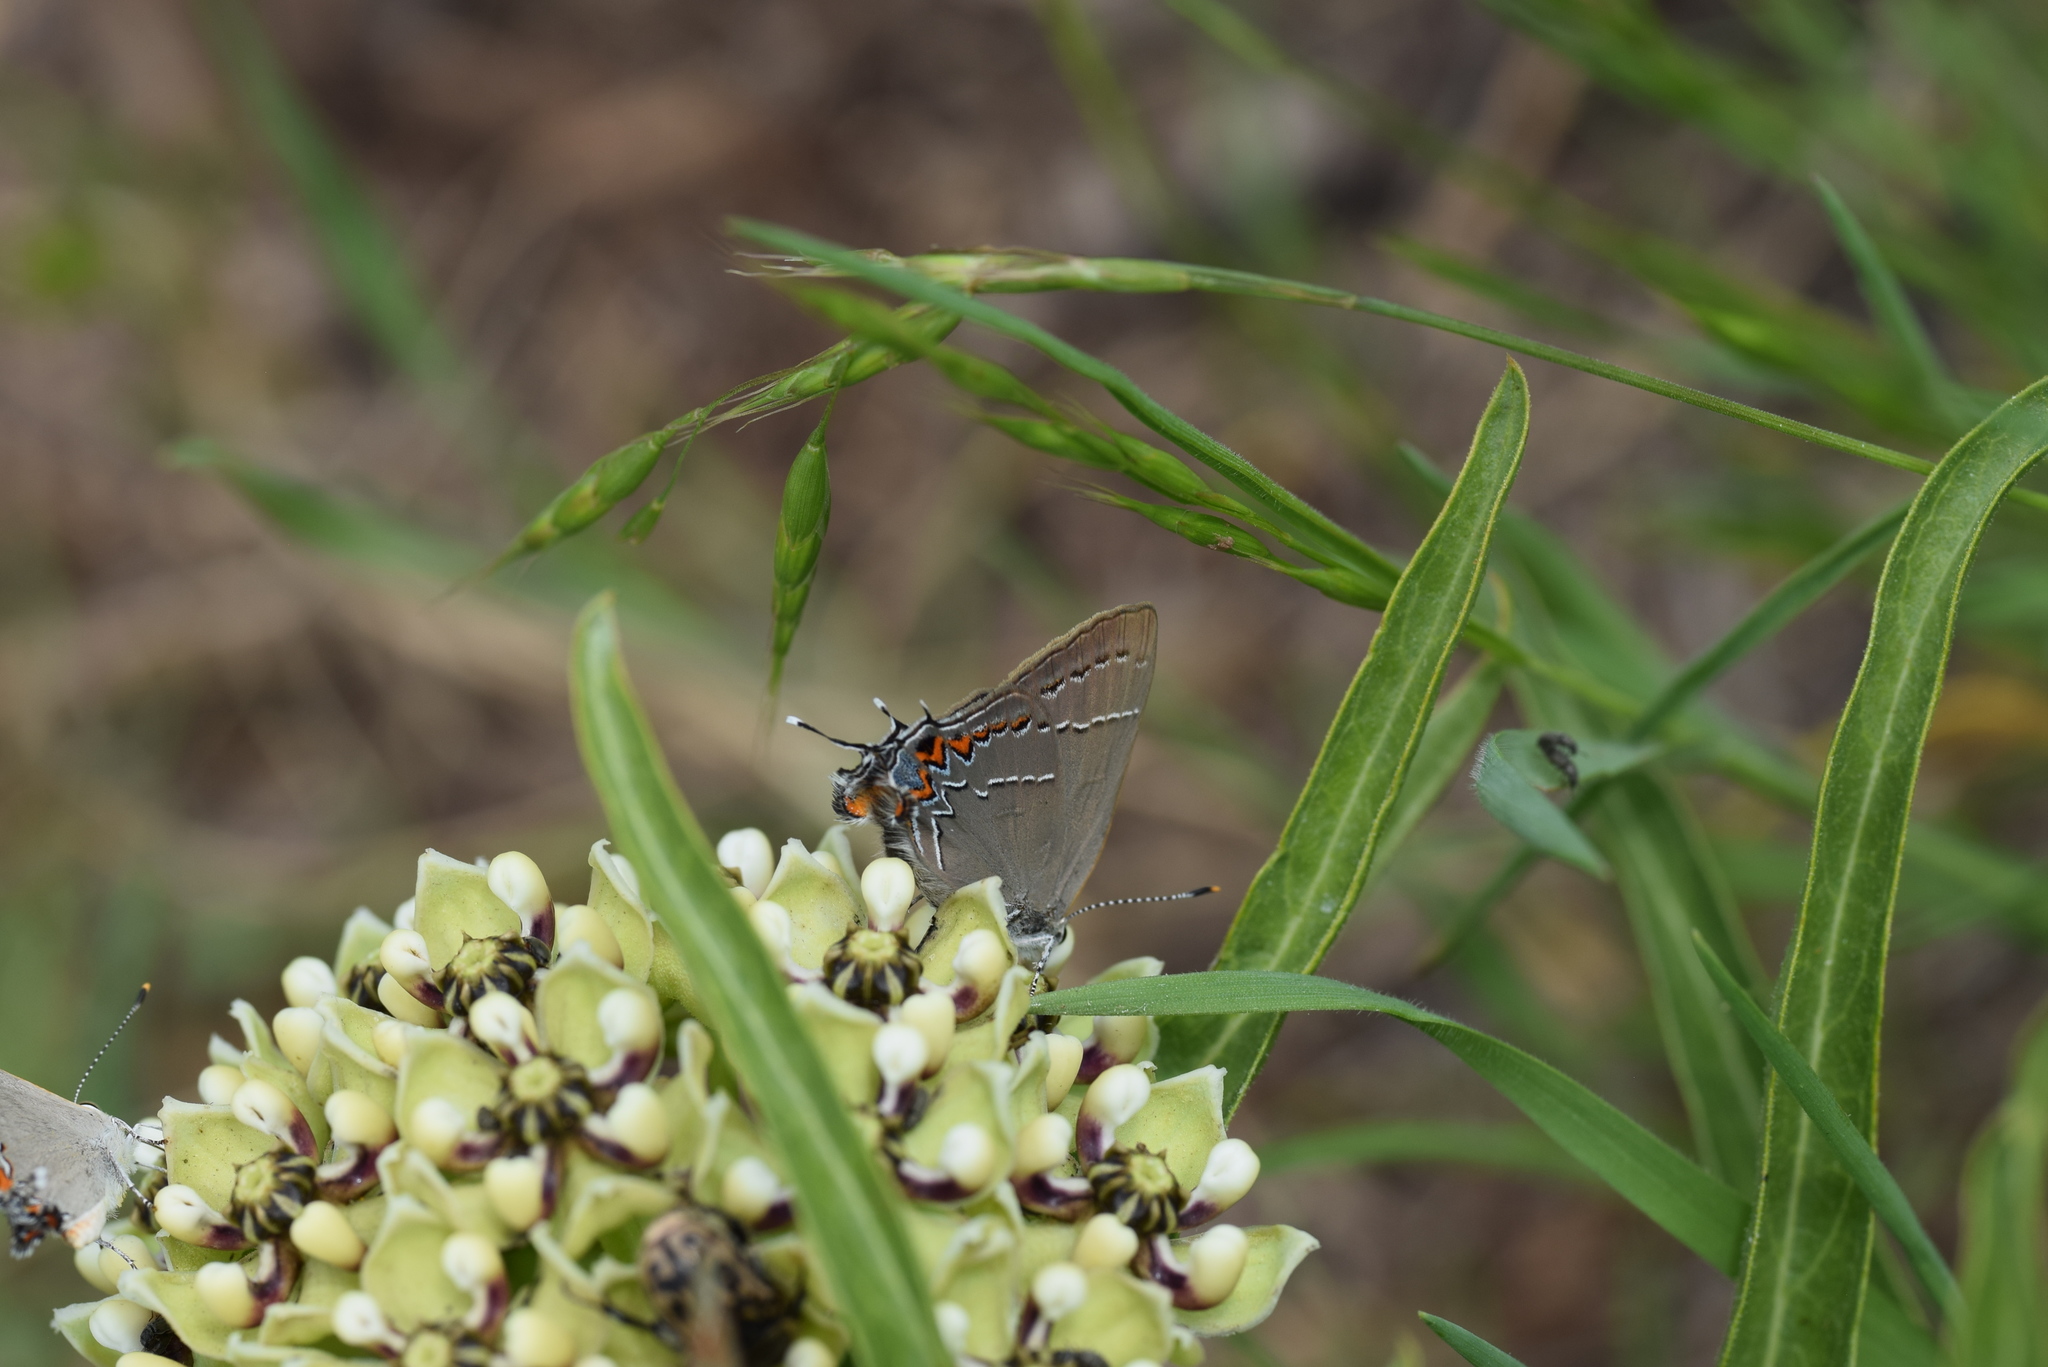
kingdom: Animalia
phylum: Arthropoda
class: Insecta
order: Lepidoptera
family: Lycaenidae
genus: Fixsenia
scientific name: Fixsenia favonius
